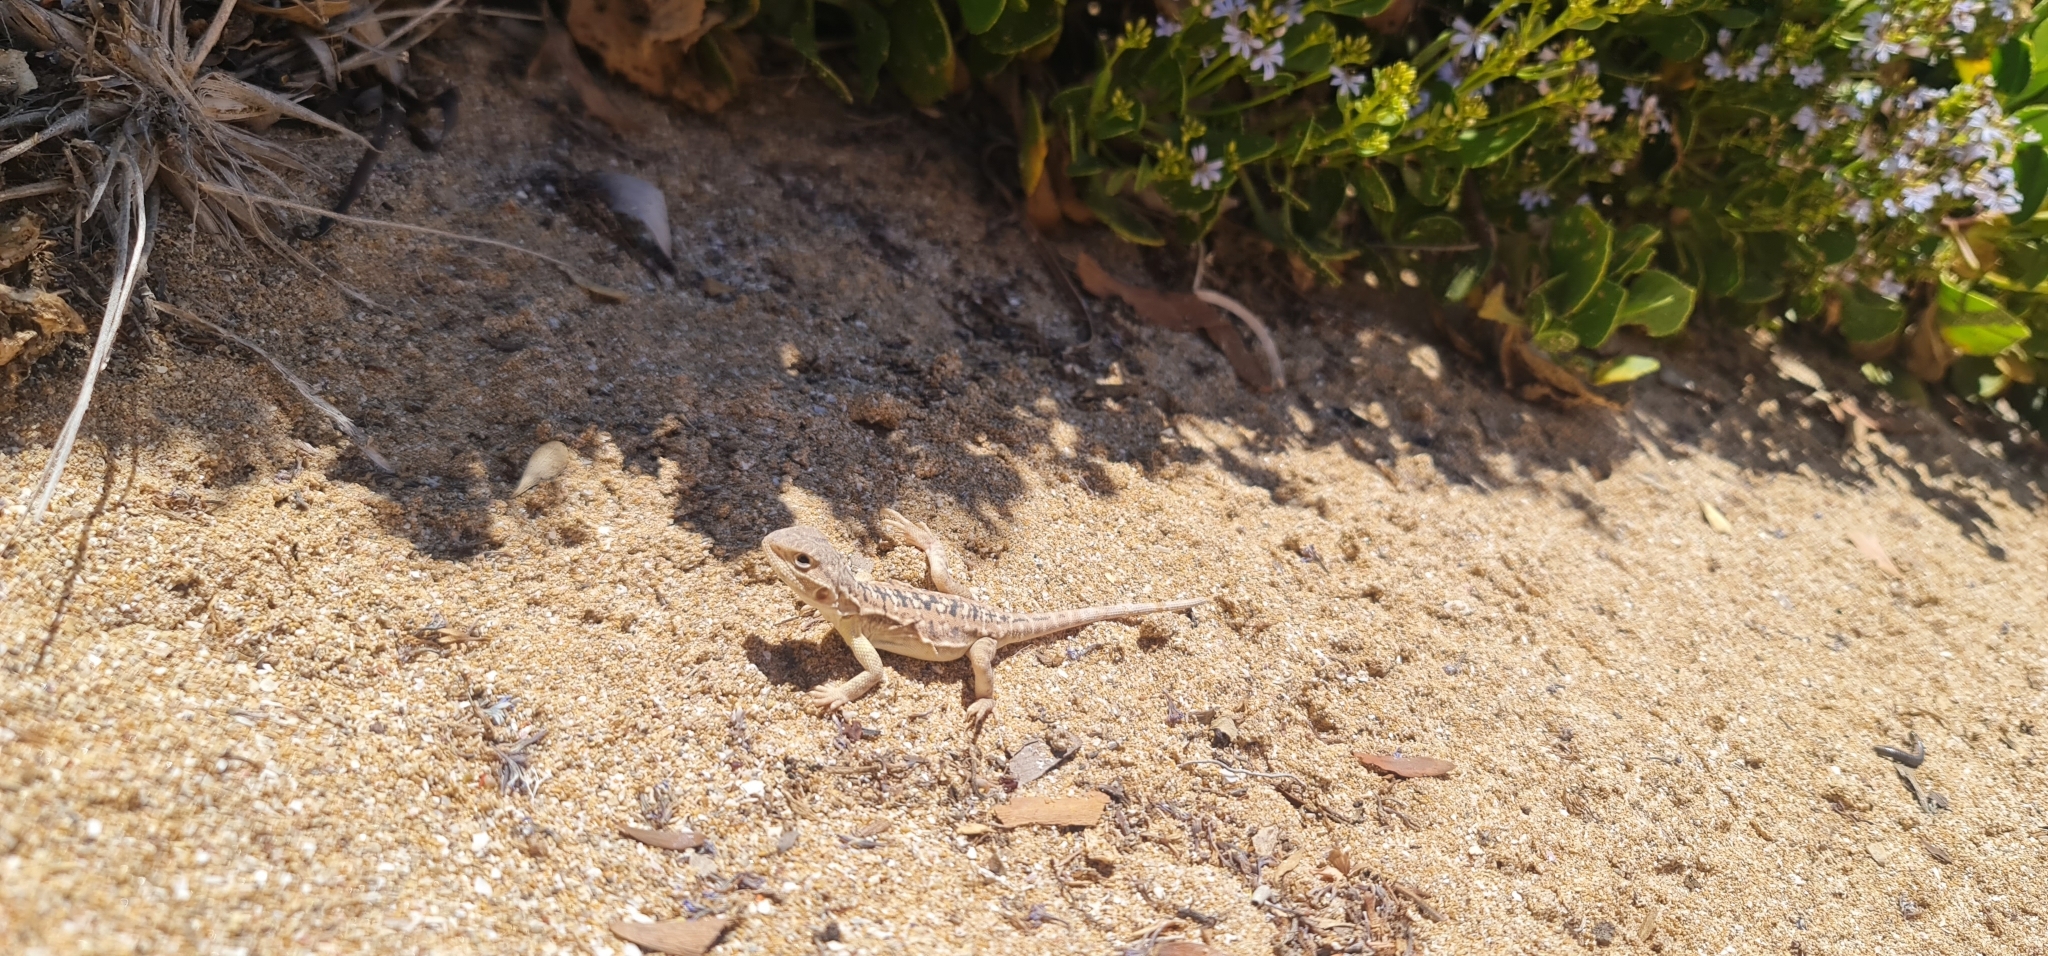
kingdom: Animalia
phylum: Chordata
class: Squamata
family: Agamidae
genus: Ctenophorus
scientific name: Ctenophorus pictus
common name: Painted dragon
